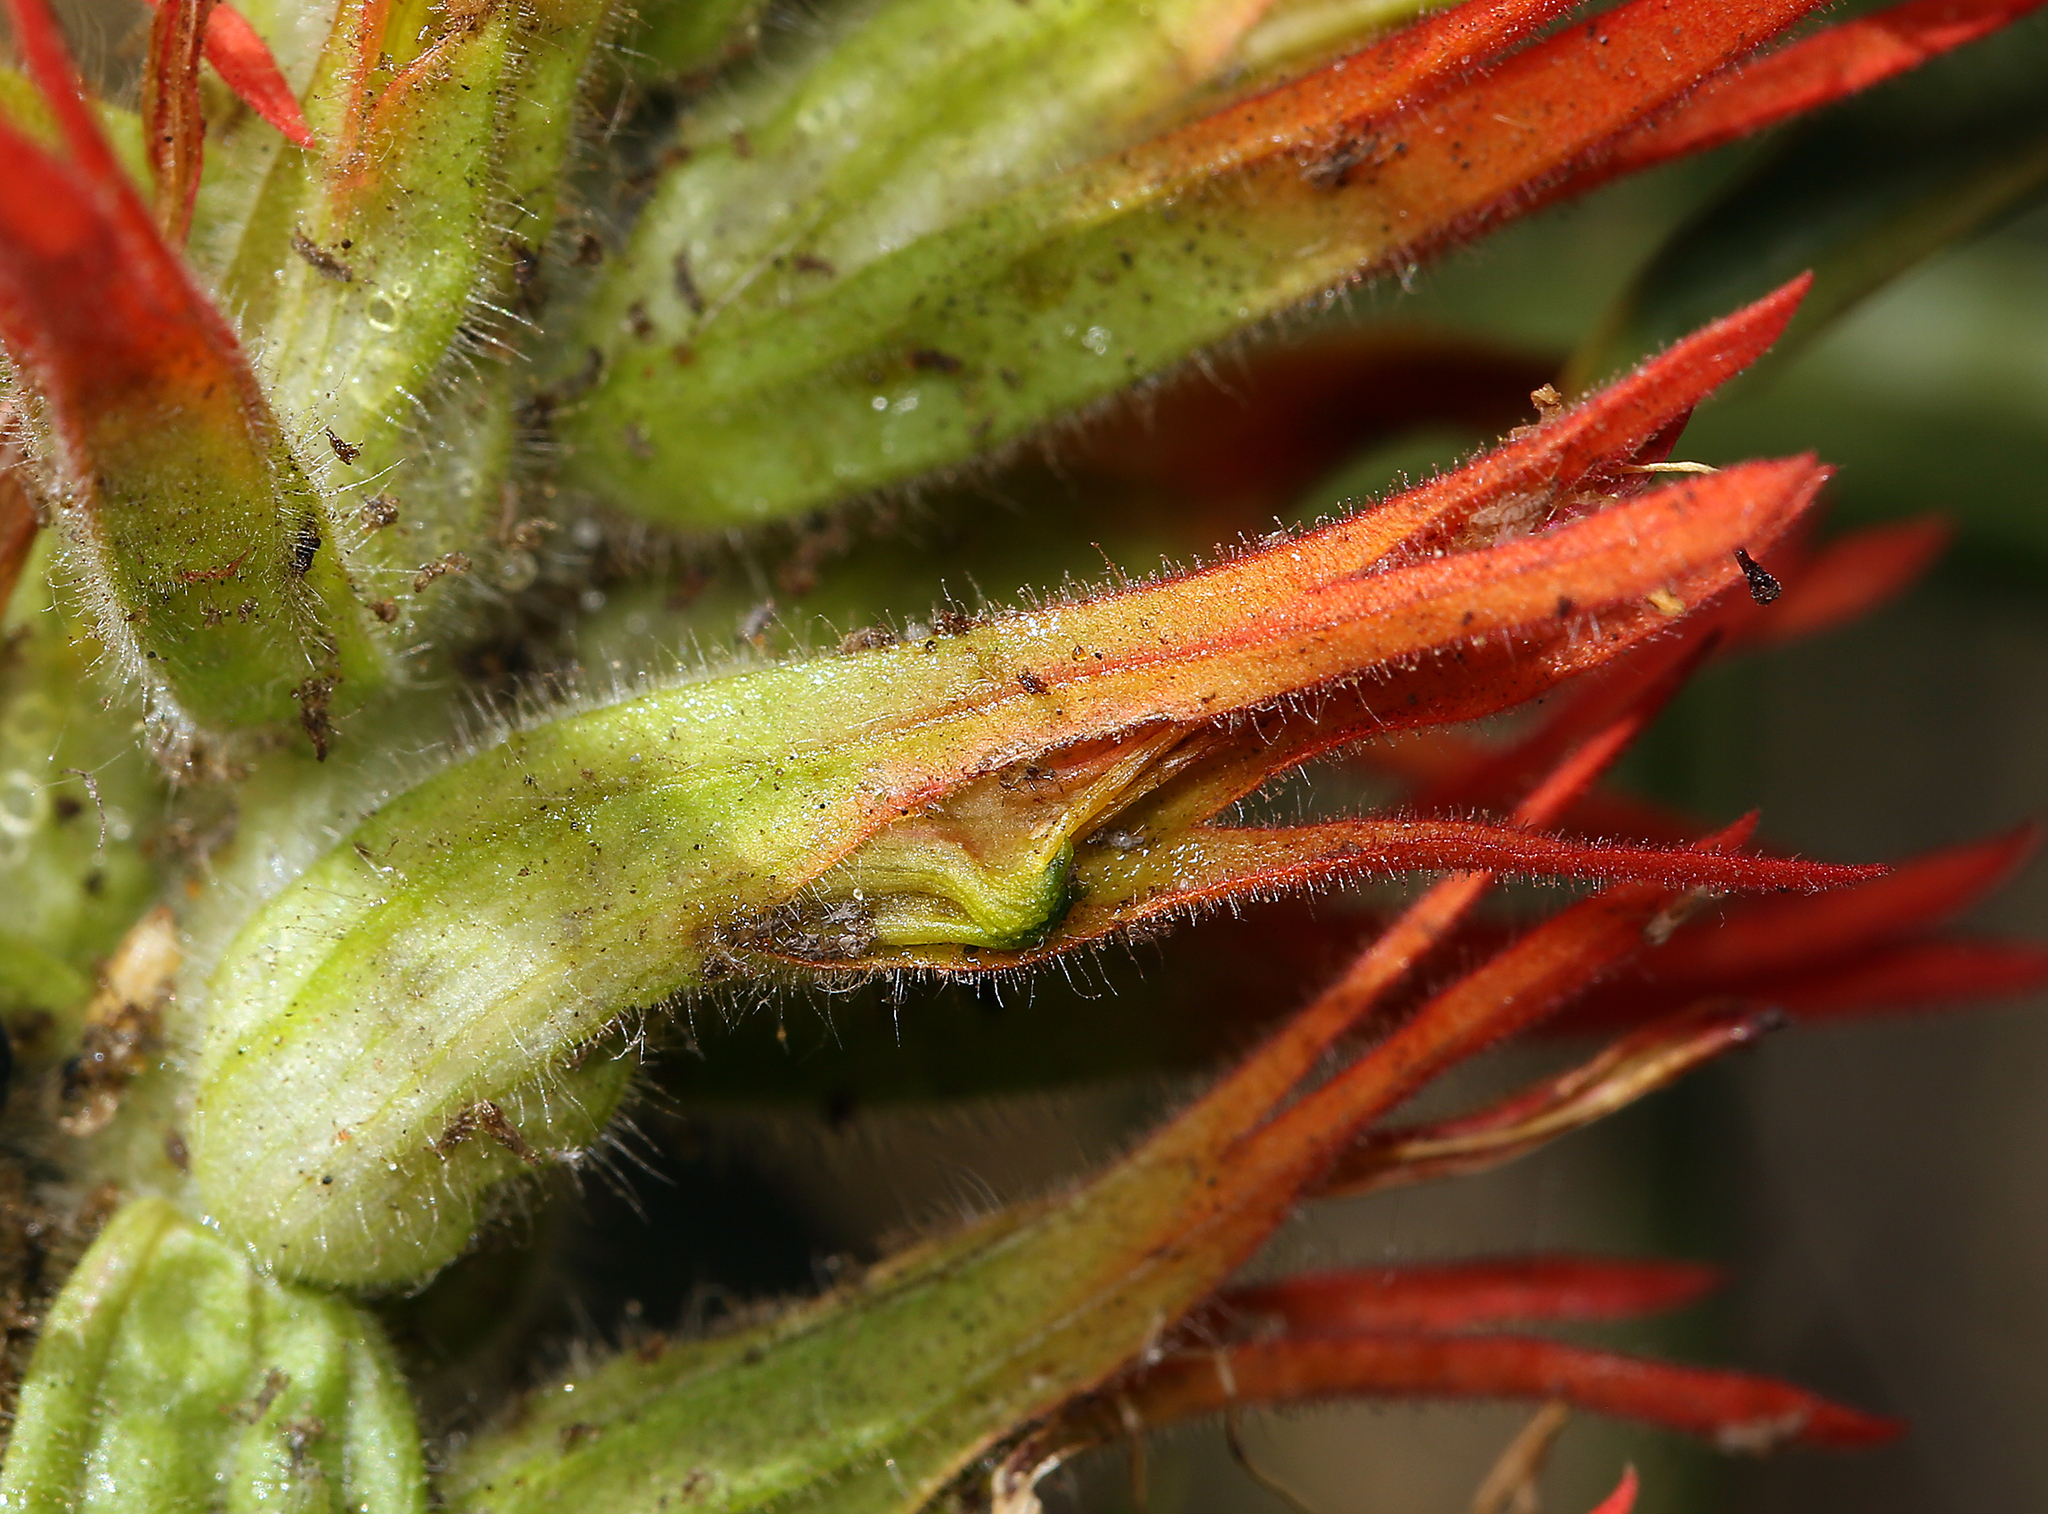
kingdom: Plantae
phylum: Tracheophyta
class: Magnoliopsida
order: Lamiales
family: Orobanchaceae
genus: Castilleja
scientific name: Castilleja miniata
